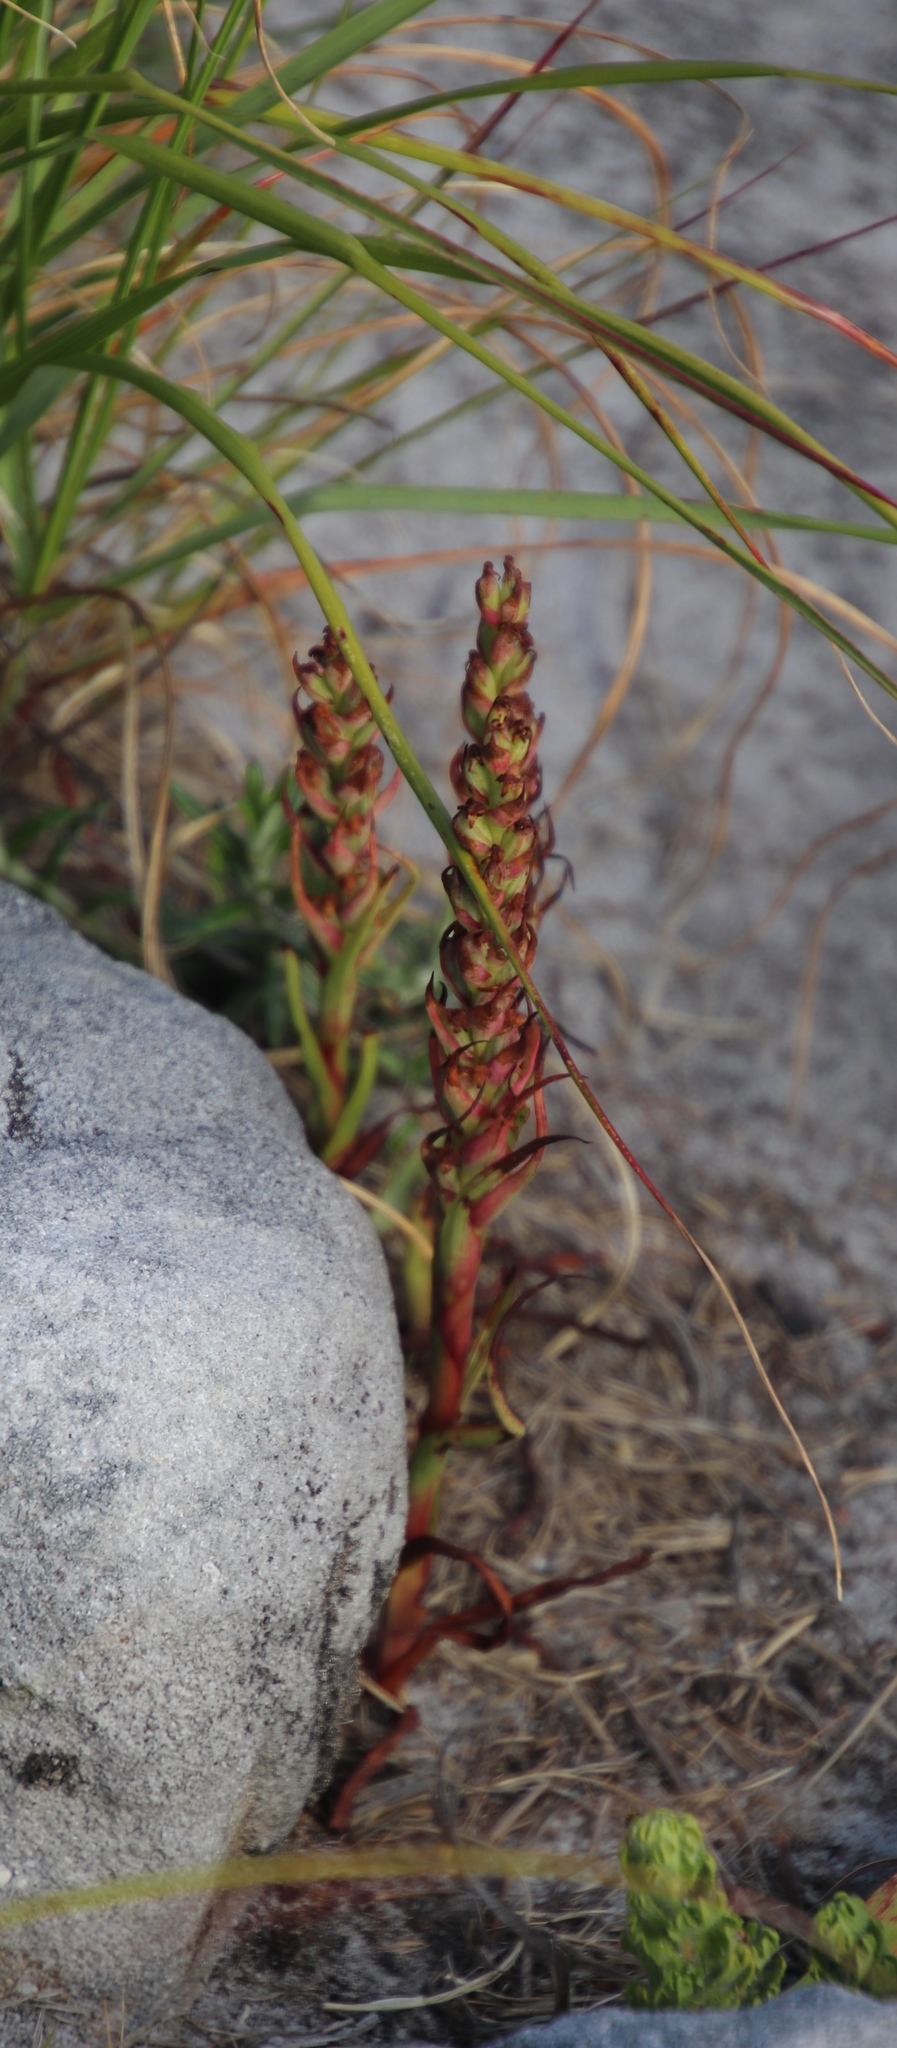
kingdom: Plantae
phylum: Tracheophyta
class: Liliopsida
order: Asparagales
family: Orchidaceae
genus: Disa
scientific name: Disa bracteata
